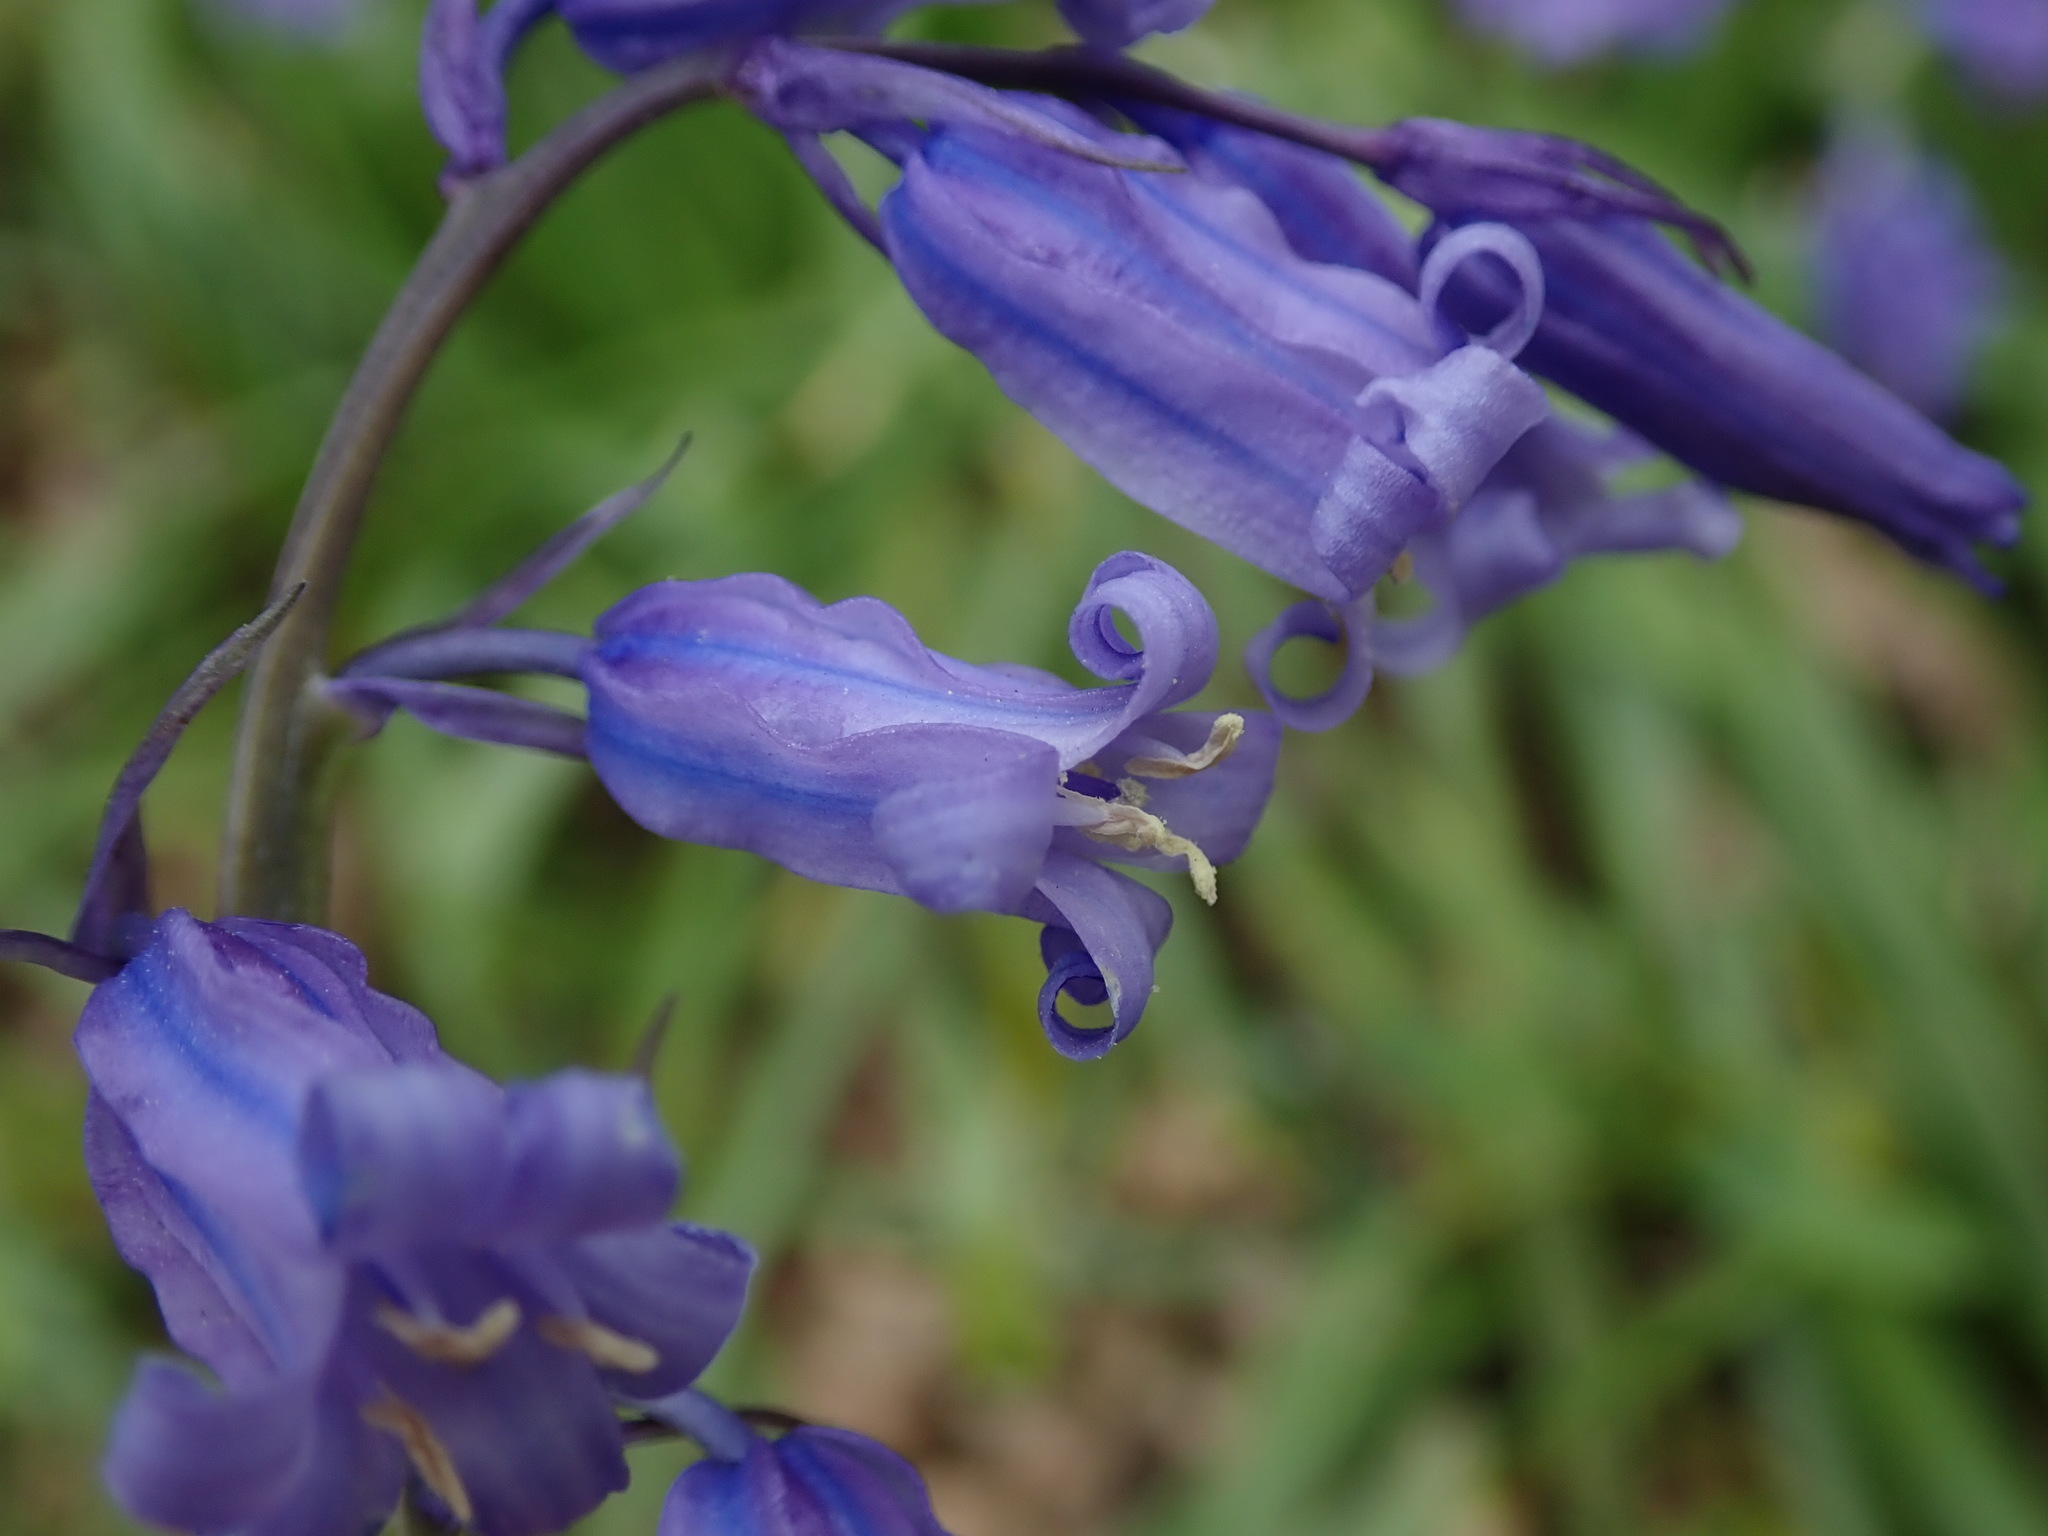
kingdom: Plantae
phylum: Tracheophyta
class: Liliopsida
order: Asparagales
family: Asparagaceae
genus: Hyacinthoides
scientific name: Hyacinthoides non-scripta
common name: Bluebell
